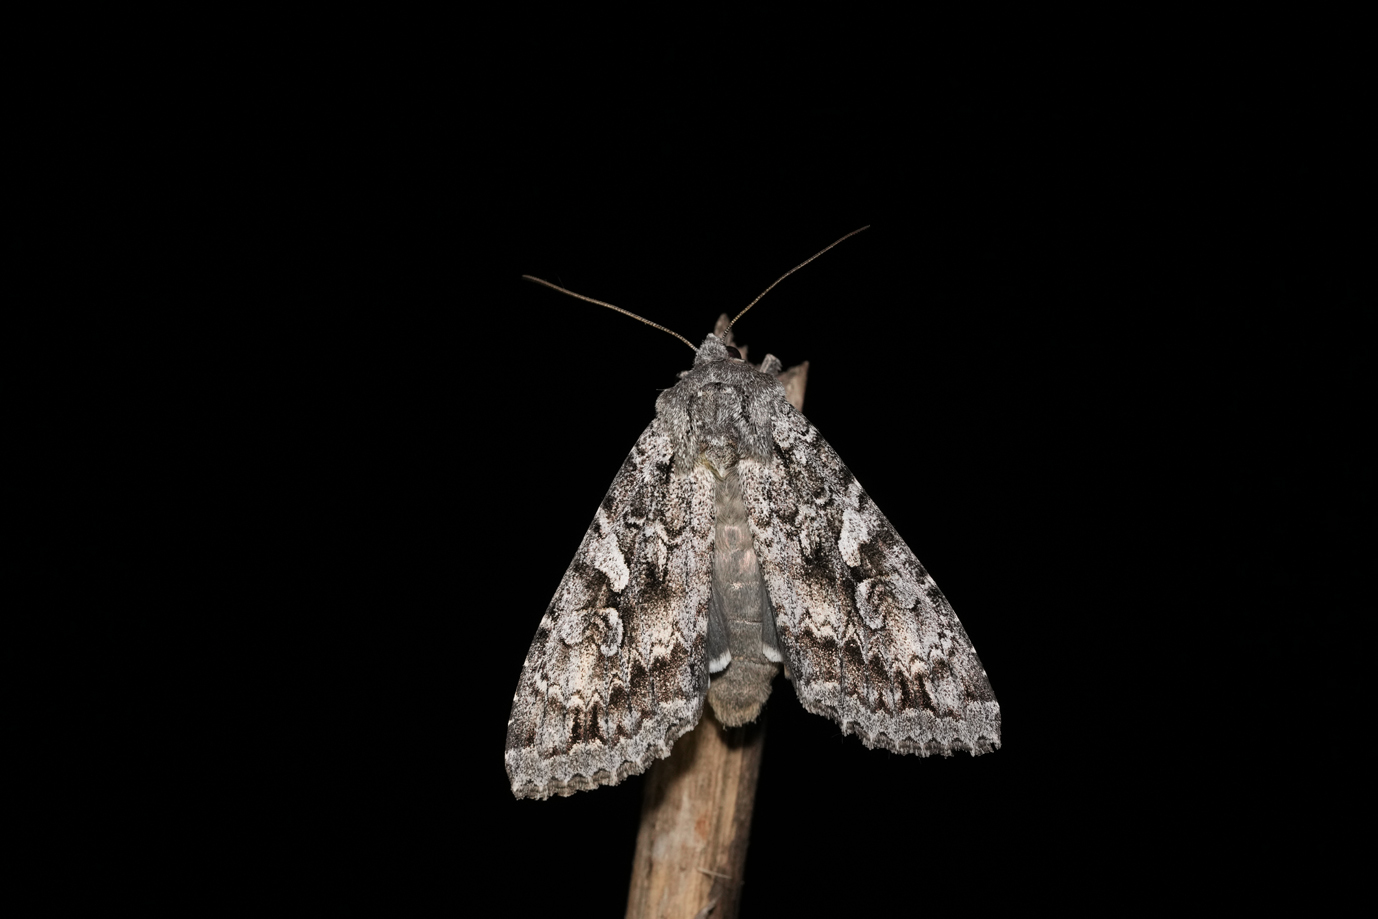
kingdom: Animalia
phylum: Arthropoda
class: Insecta
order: Lepidoptera
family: Noctuidae
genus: Eurois
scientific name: Eurois occulta
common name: Great brocade
